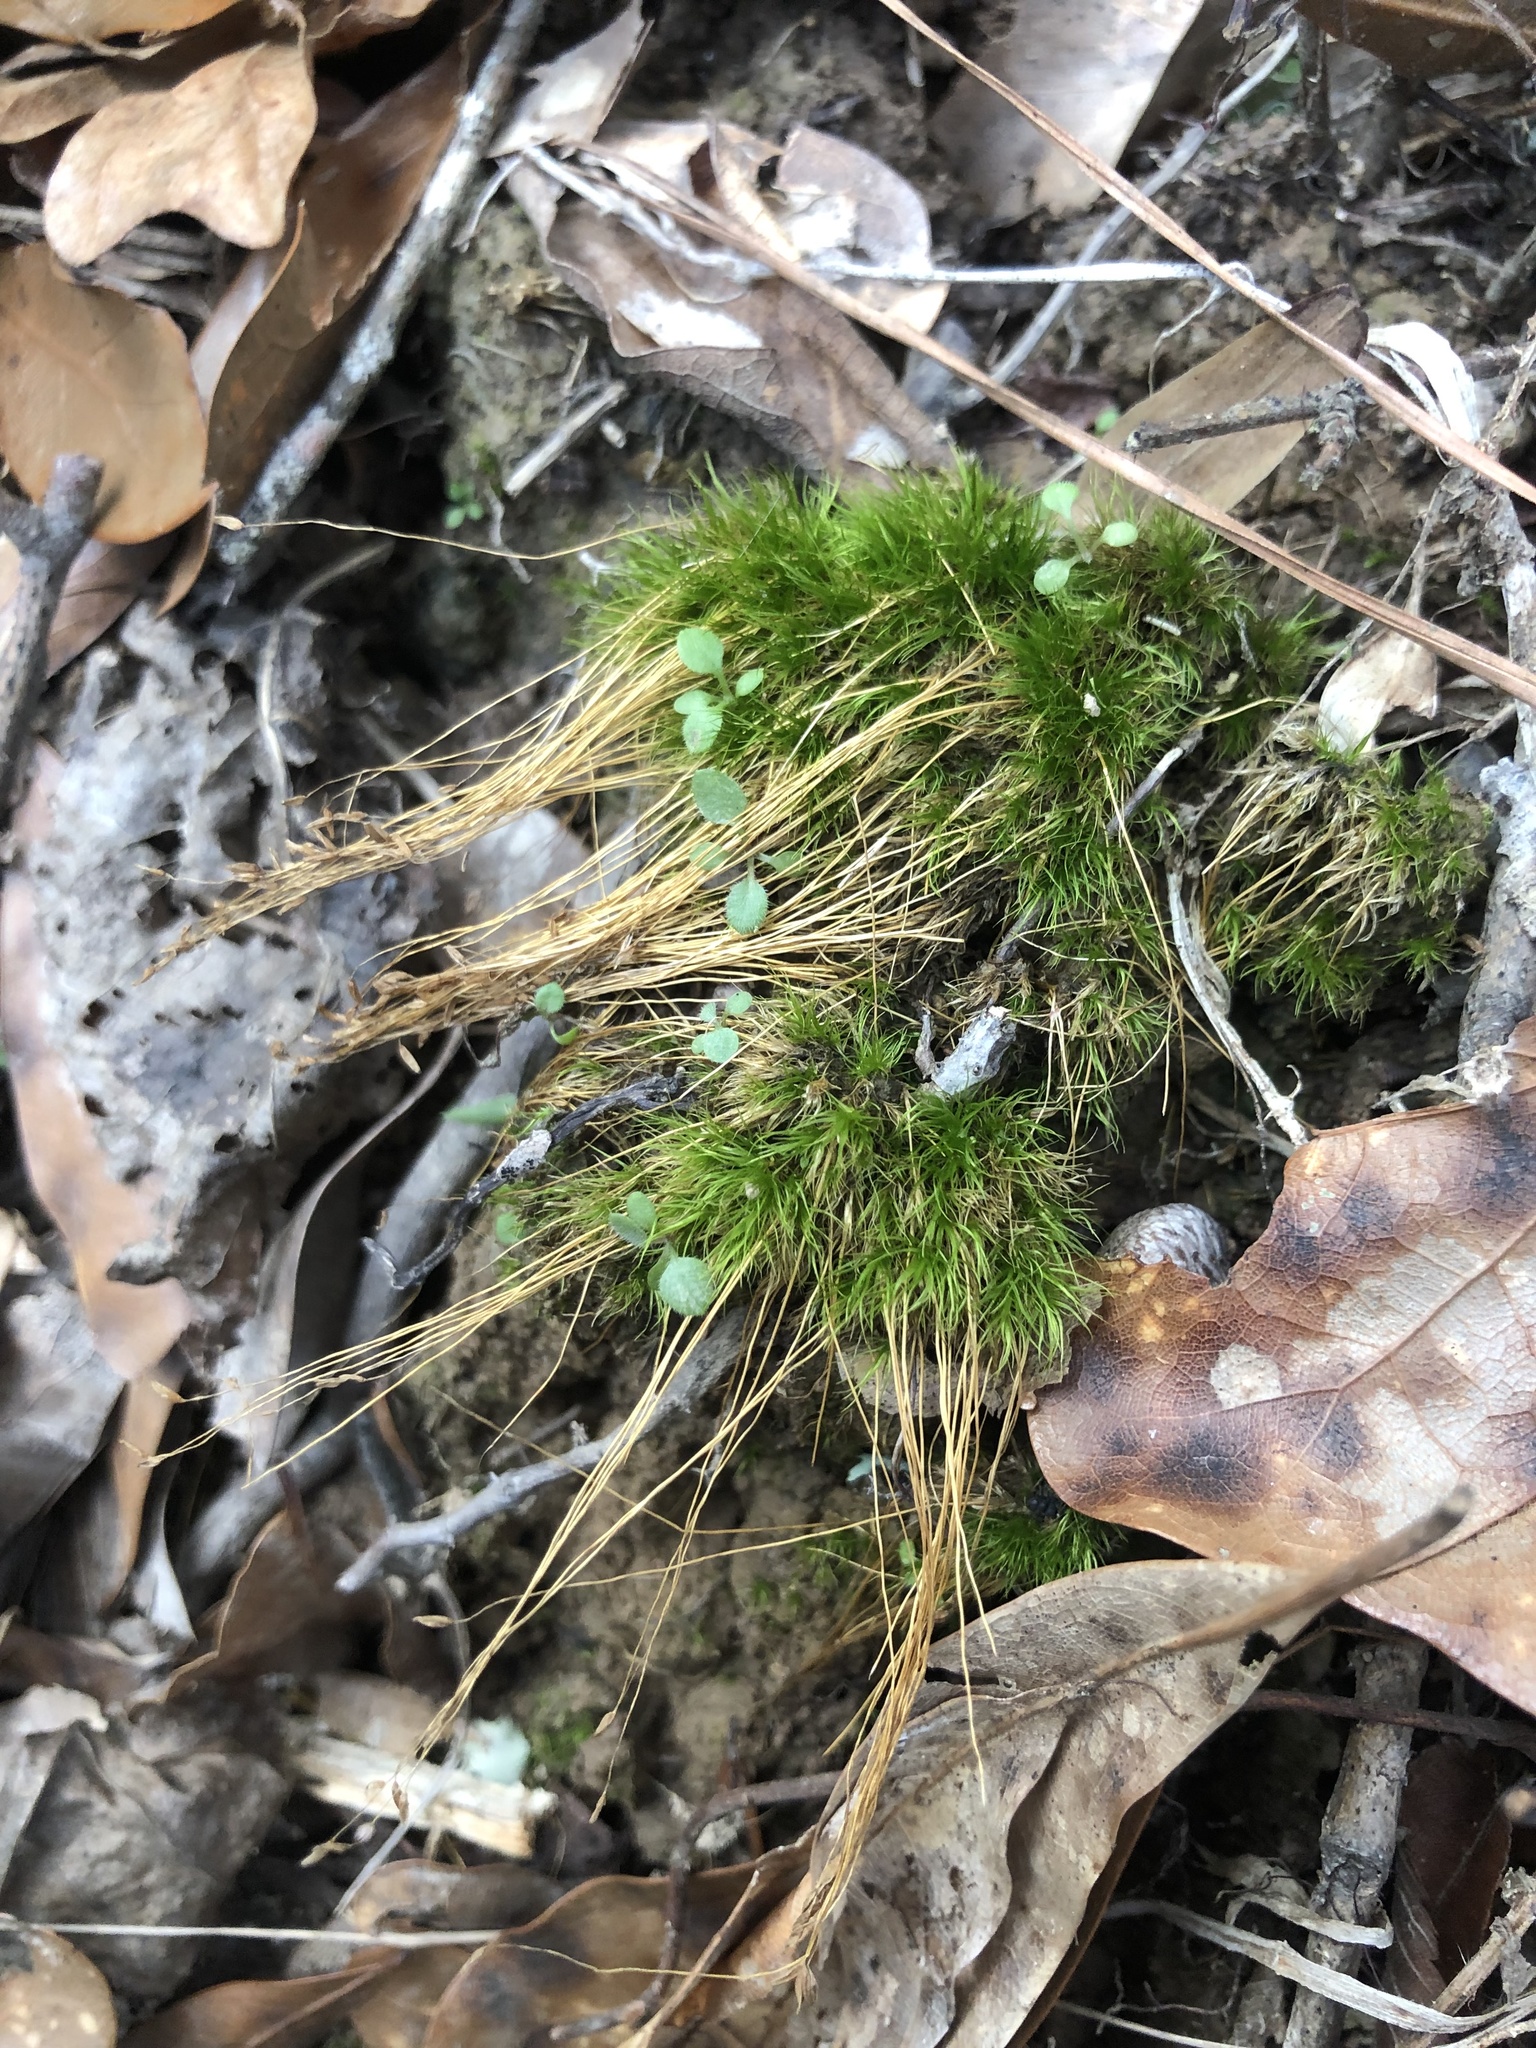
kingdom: Plantae
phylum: Bryophyta
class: Bryopsida
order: Dicranales
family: Ditrichaceae
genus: Ditrichum
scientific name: Ditrichum pallidum
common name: Pale cow-hair moss
